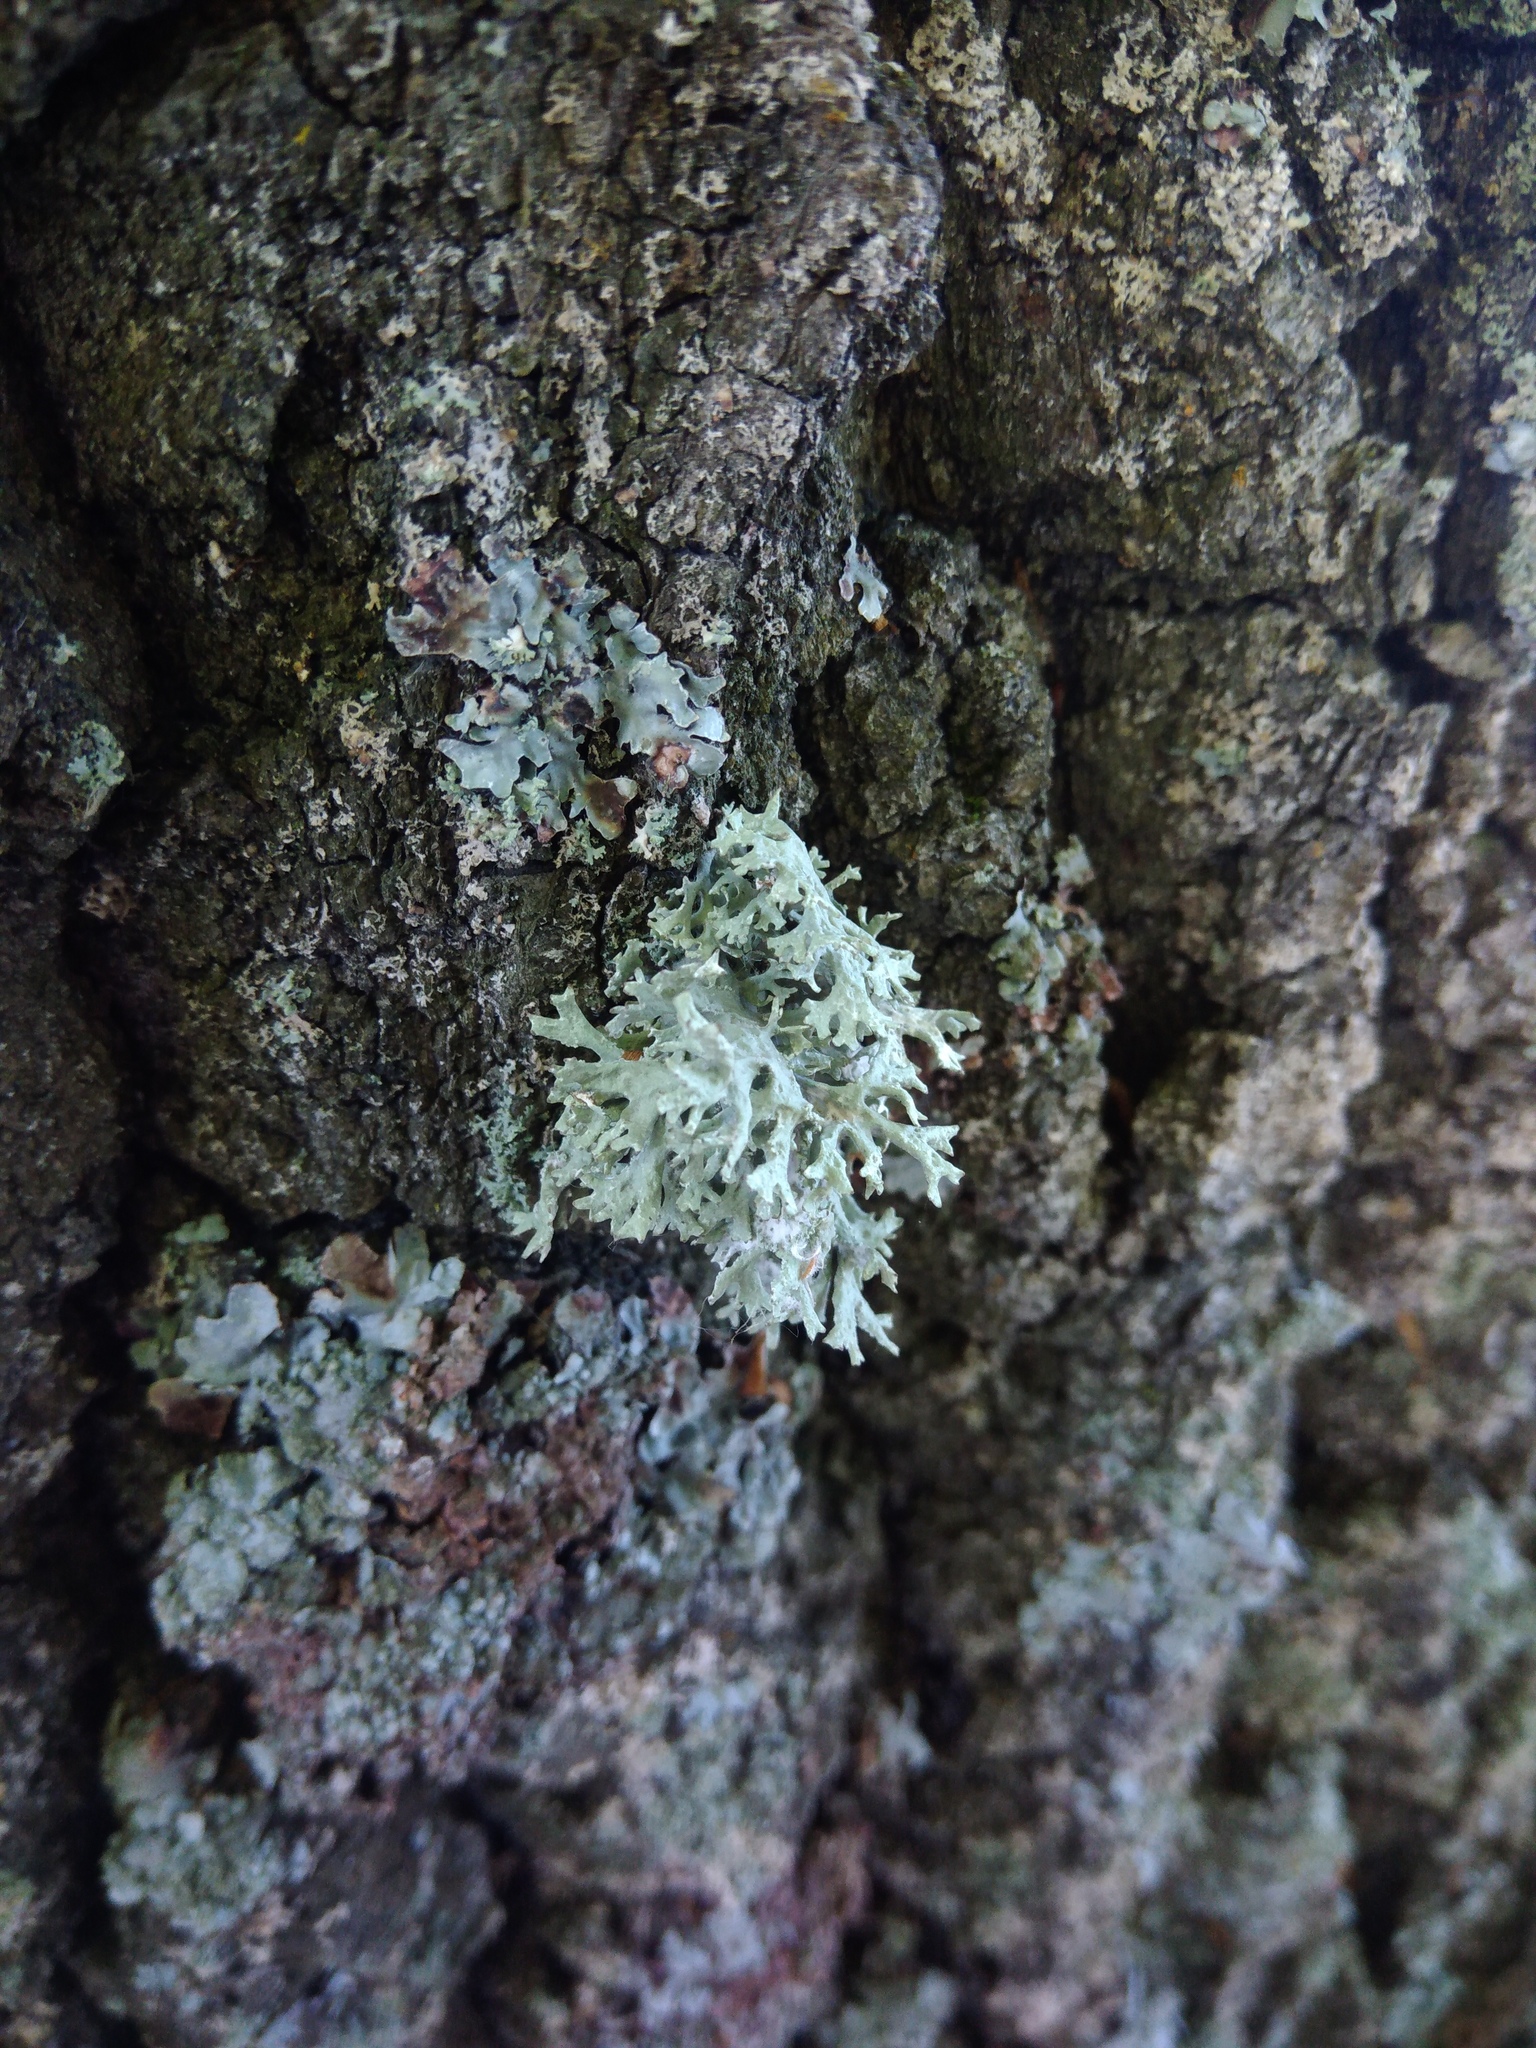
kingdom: Fungi
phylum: Ascomycota
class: Lecanoromycetes
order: Lecanorales
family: Parmeliaceae
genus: Evernia
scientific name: Evernia prunastri
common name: Oak moss
